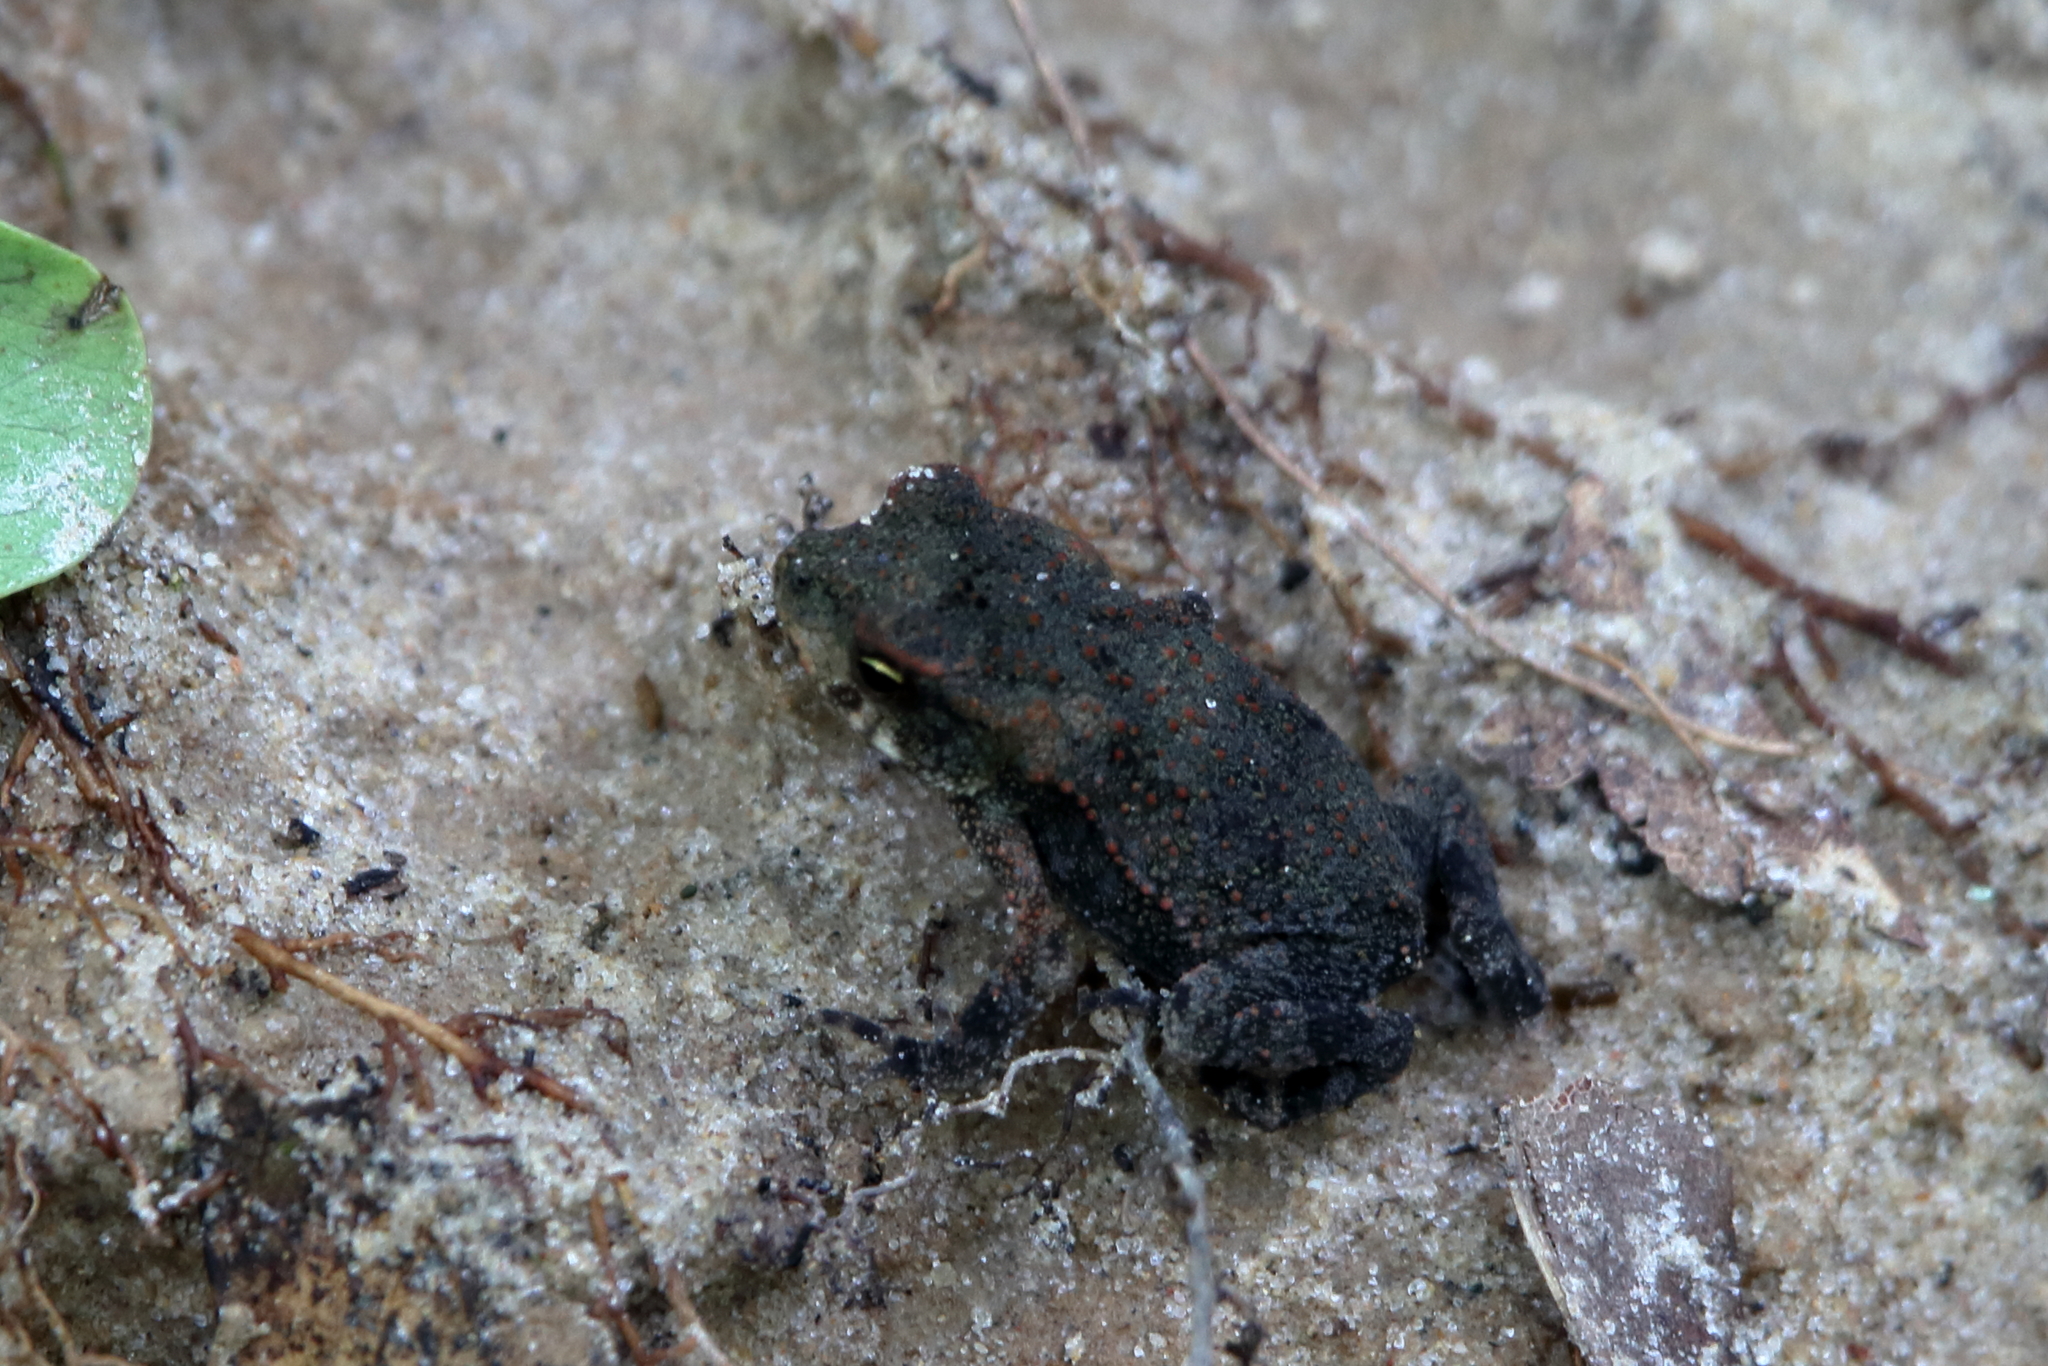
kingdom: Animalia
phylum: Chordata
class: Amphibia
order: Anura
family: Bufonidae
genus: Incilius
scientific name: Incilius nebulifer
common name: Gulf coast toad
